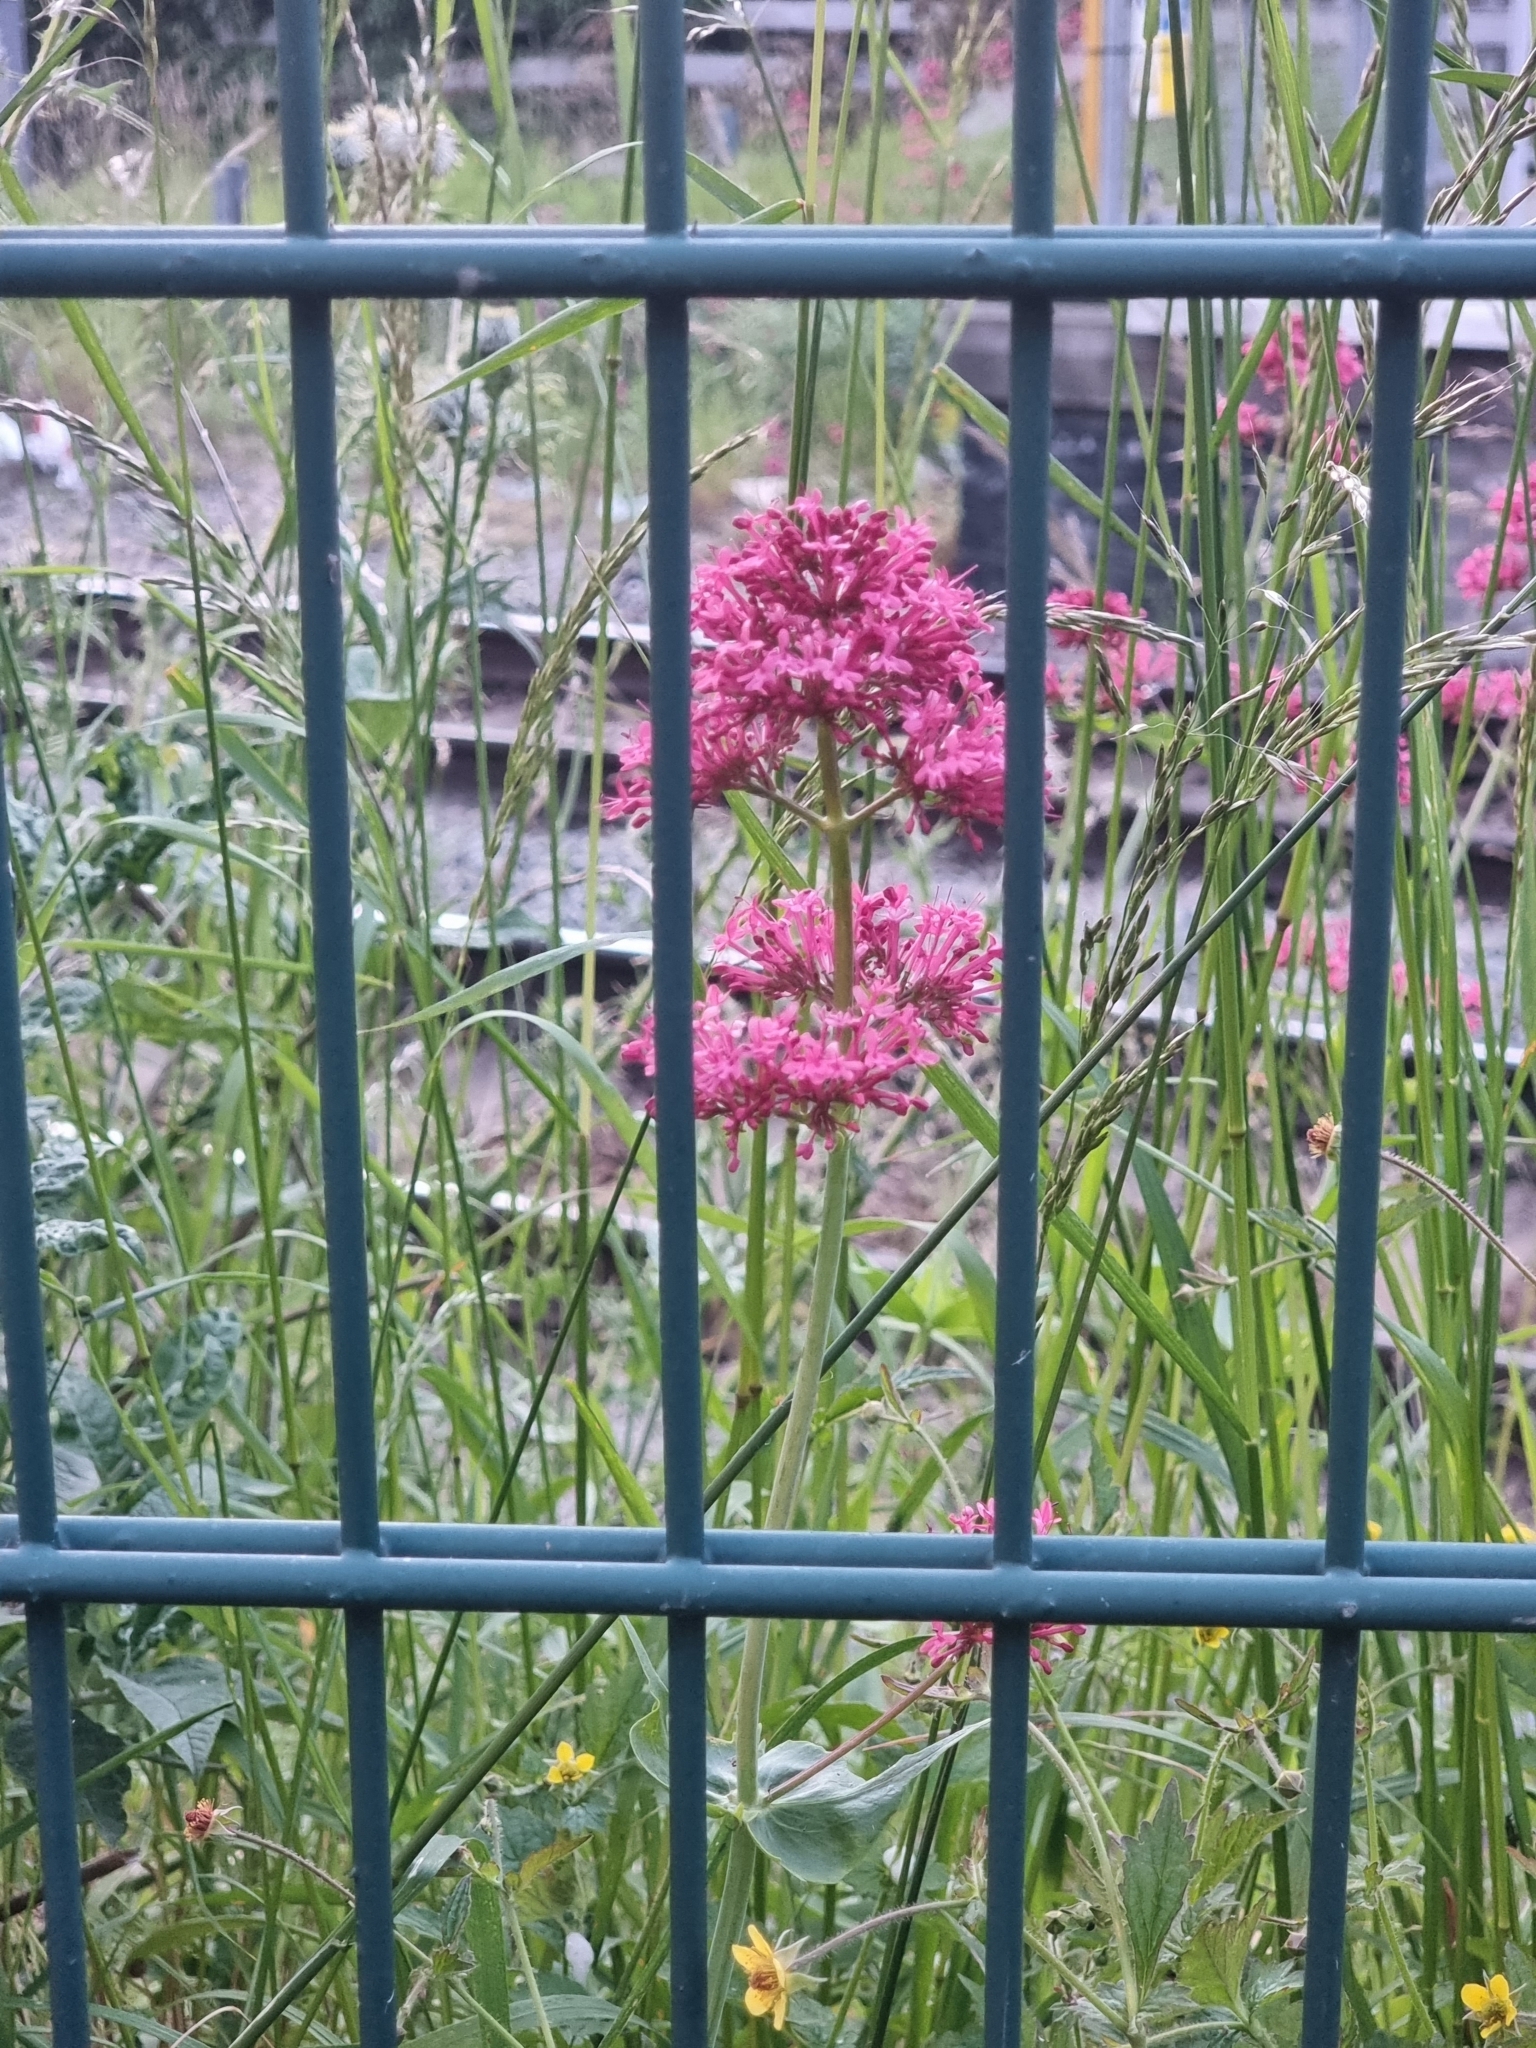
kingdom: Plantae
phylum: Tracheophyta
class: Magnoliopsida
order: Dipsacales
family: Caprifoliaceae
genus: Centranthus
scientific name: Centranthus ruber
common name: Red valerian
